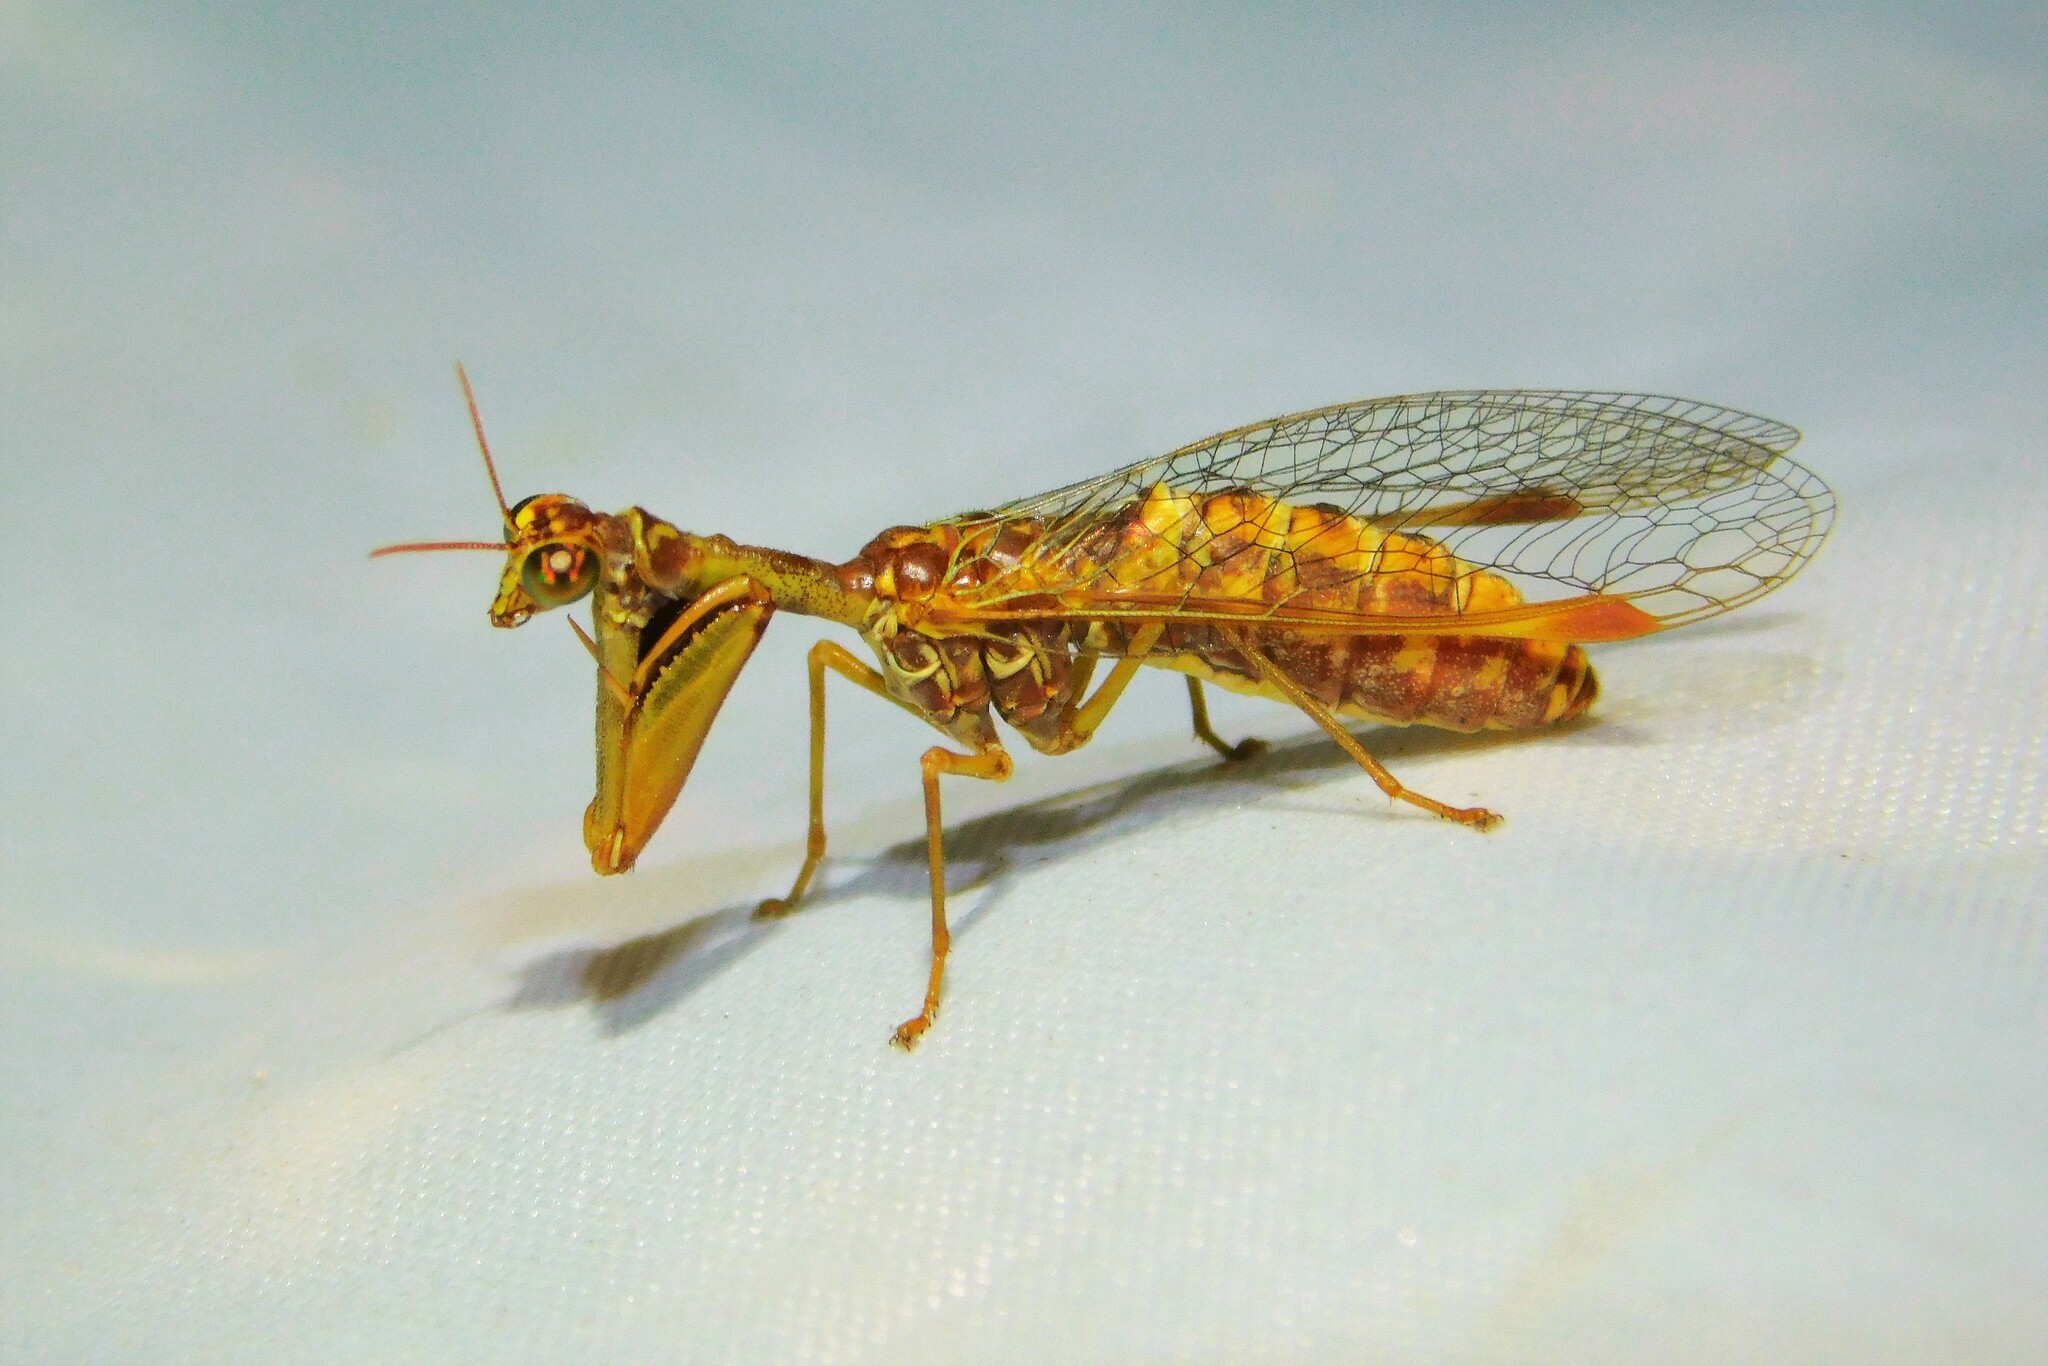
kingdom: Animalia
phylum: Arthropoda
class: Insecta
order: Neuroptera
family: Mantispidae
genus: Mantispa
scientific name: Mantispa styriaca
